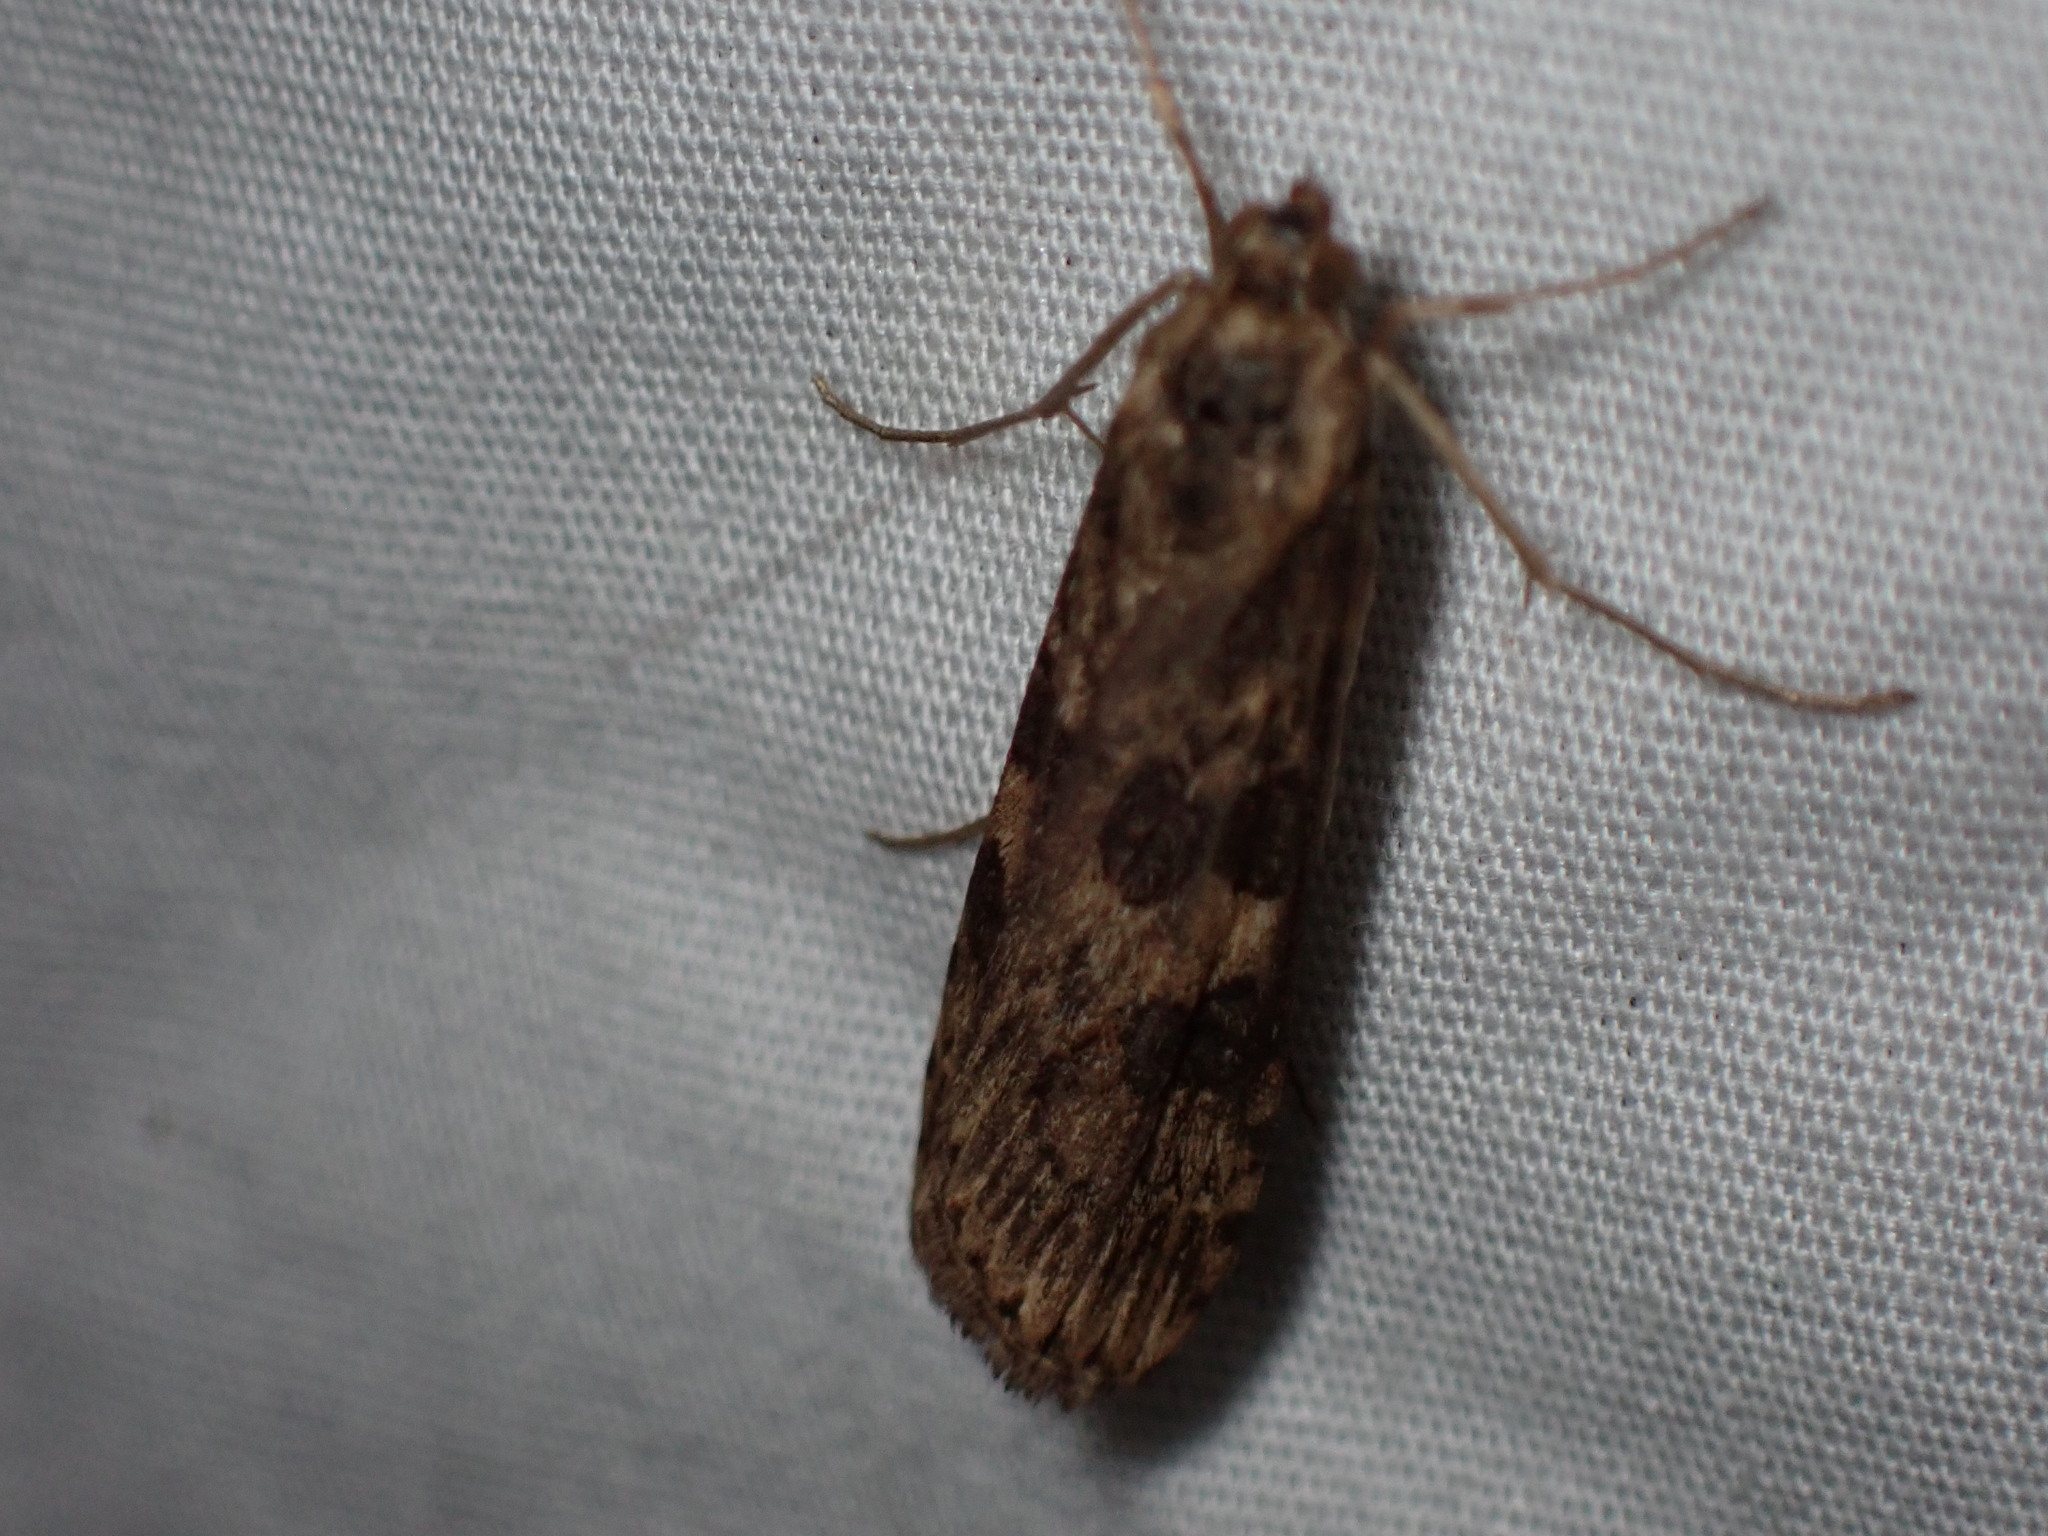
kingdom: Animalia
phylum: Arthropoda
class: Insecta
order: Lepidoptera
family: Crambidae
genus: Nomophila
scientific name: Nomophila nearctica
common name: American rush veneer
